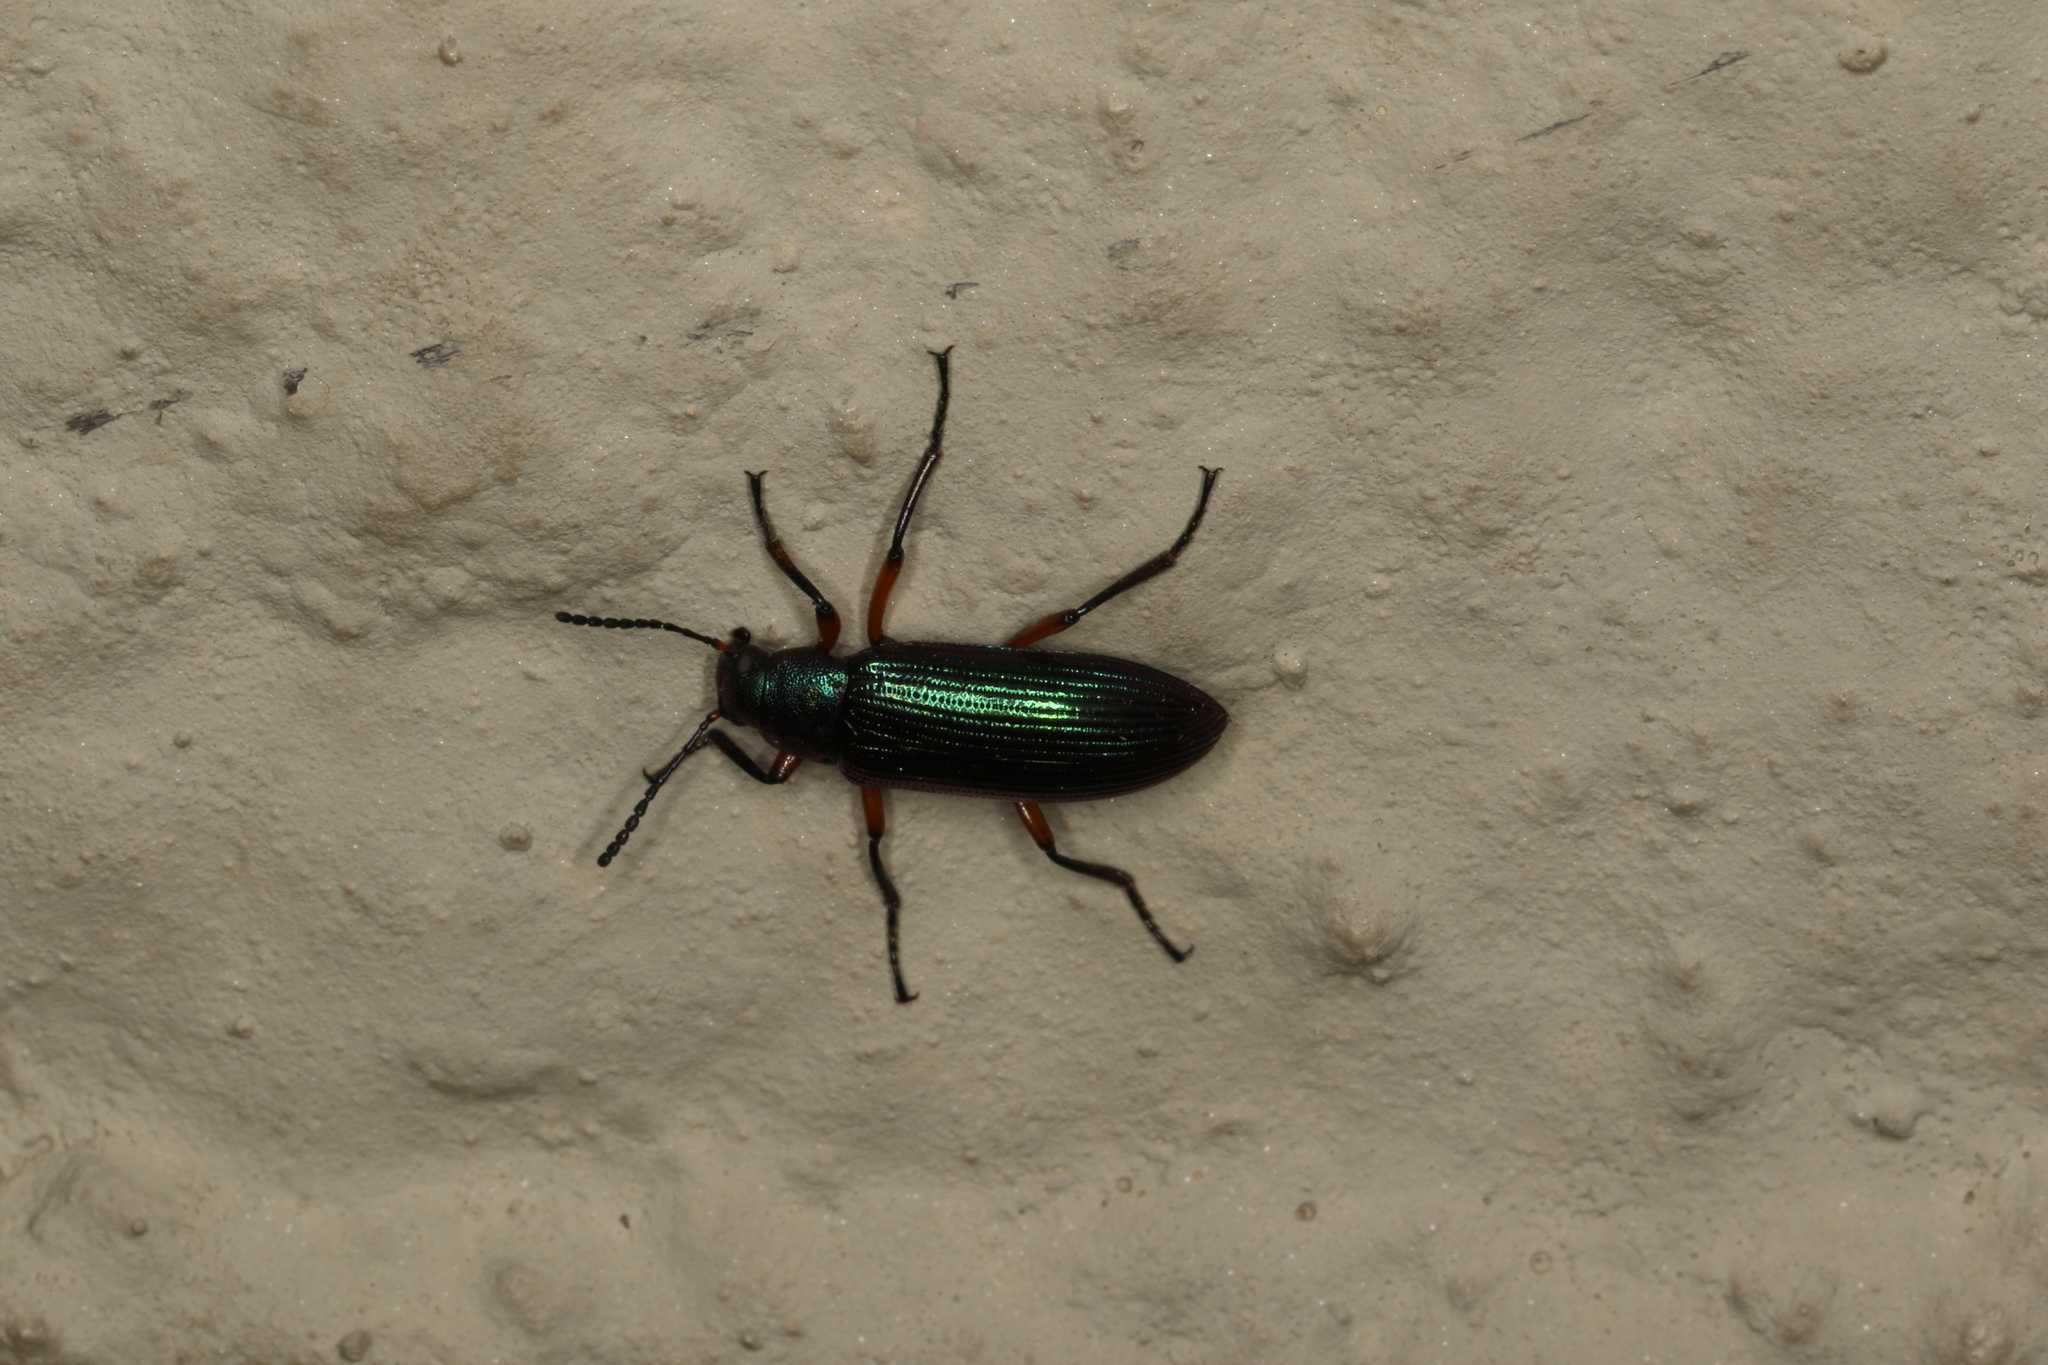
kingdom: Animalia
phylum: Arthropoda
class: Insecta
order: Coleoptera
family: Tenebrionidae
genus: Strongylium
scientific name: Strongylium
